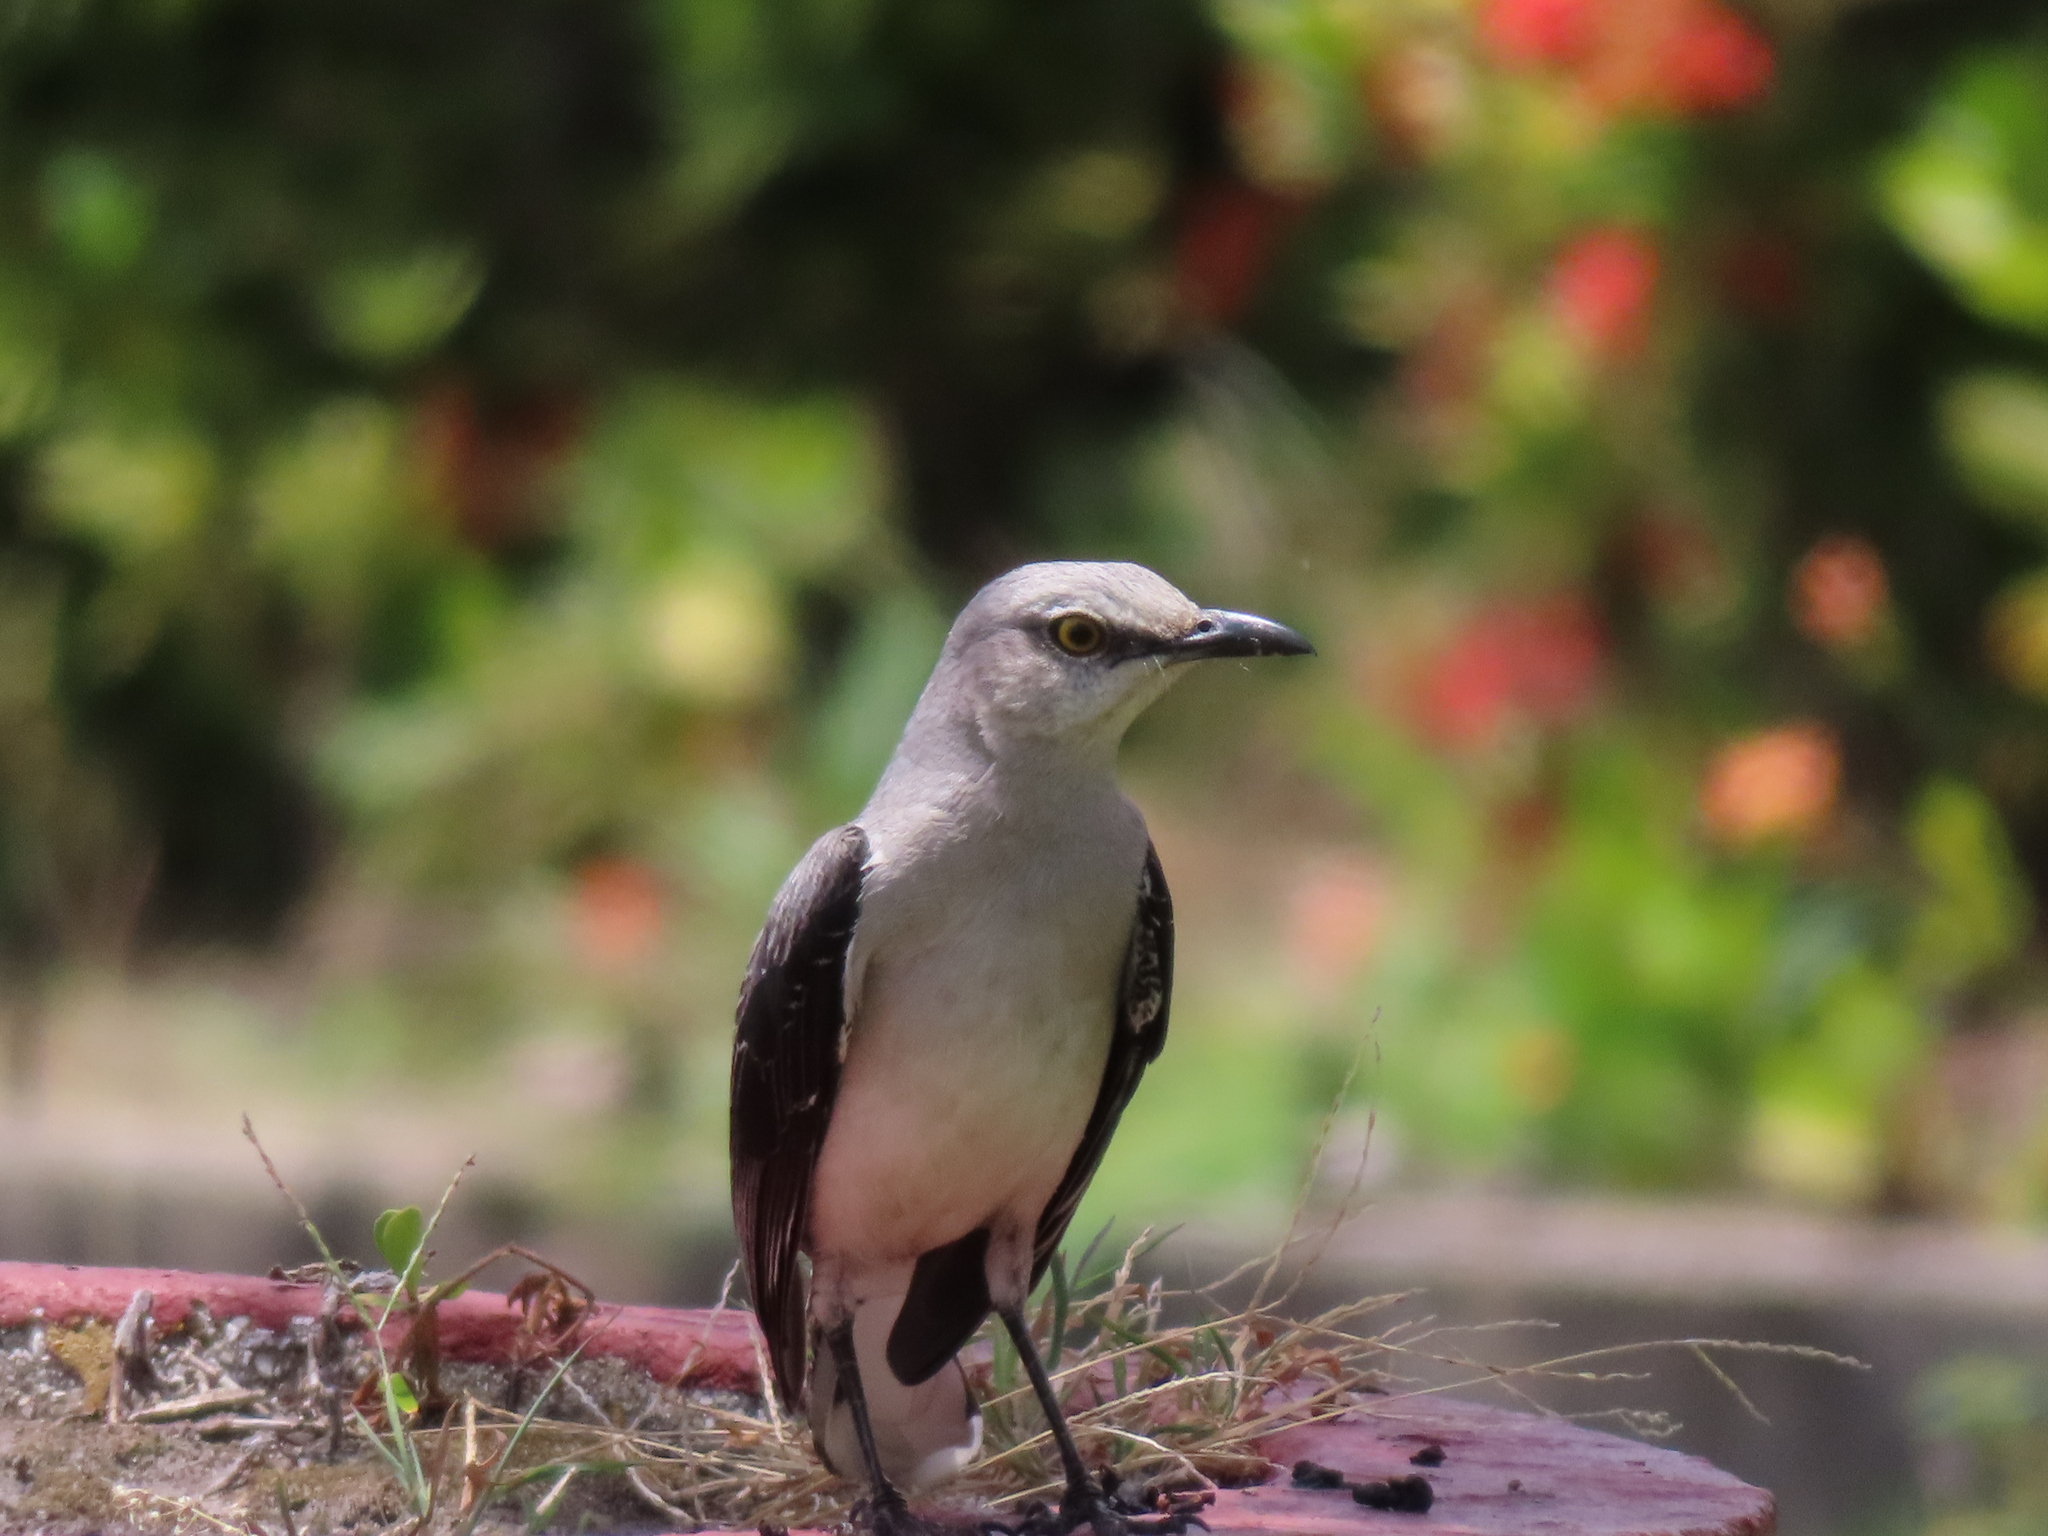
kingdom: Animalia
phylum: Chordata
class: Aves
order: Passeriformes
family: Mimidae
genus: Mimus
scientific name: Mimus gilvus
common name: Tropical mockingbird
